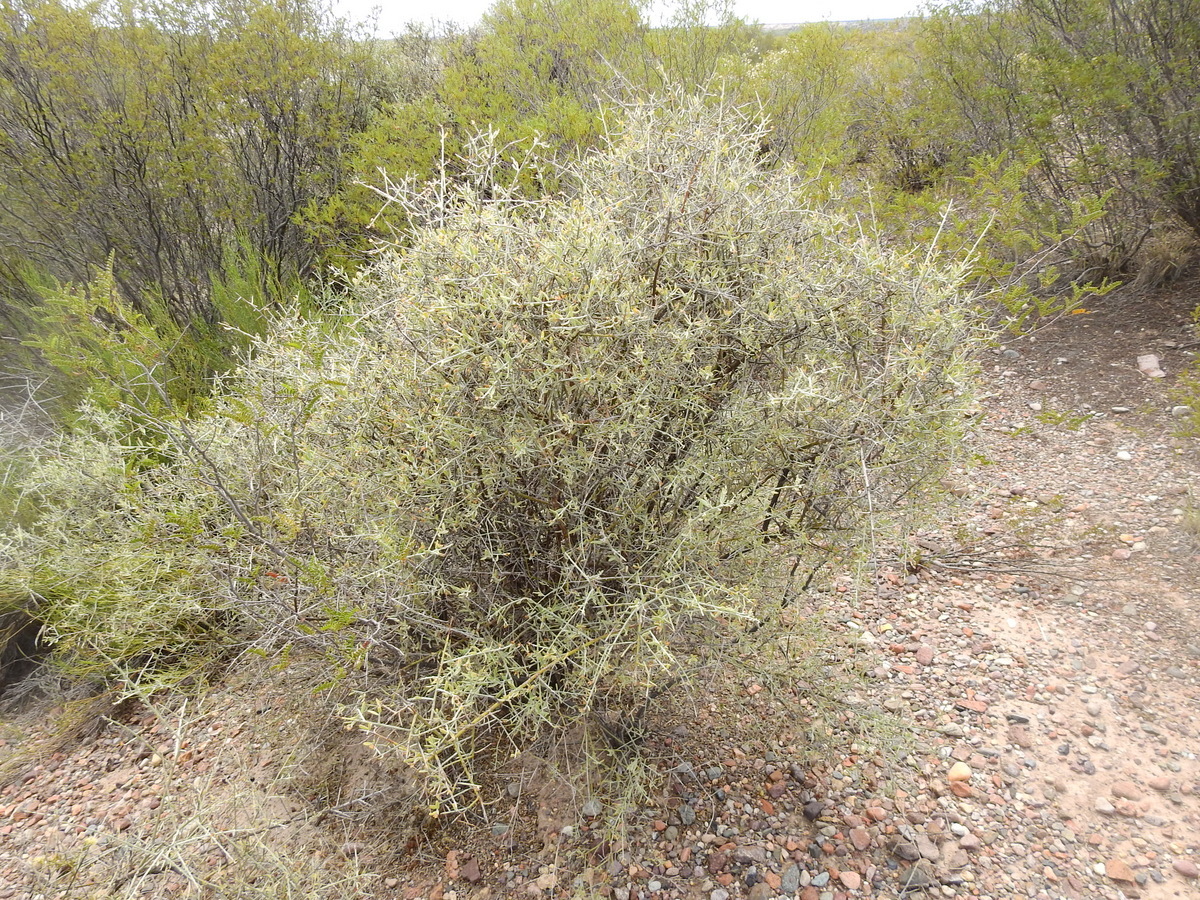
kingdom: Plantae
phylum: Tracheophyta
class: Magnoliopsida
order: Asterales
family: Asteraceae
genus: Cyclolepis
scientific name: Cyclolepis genistoides
